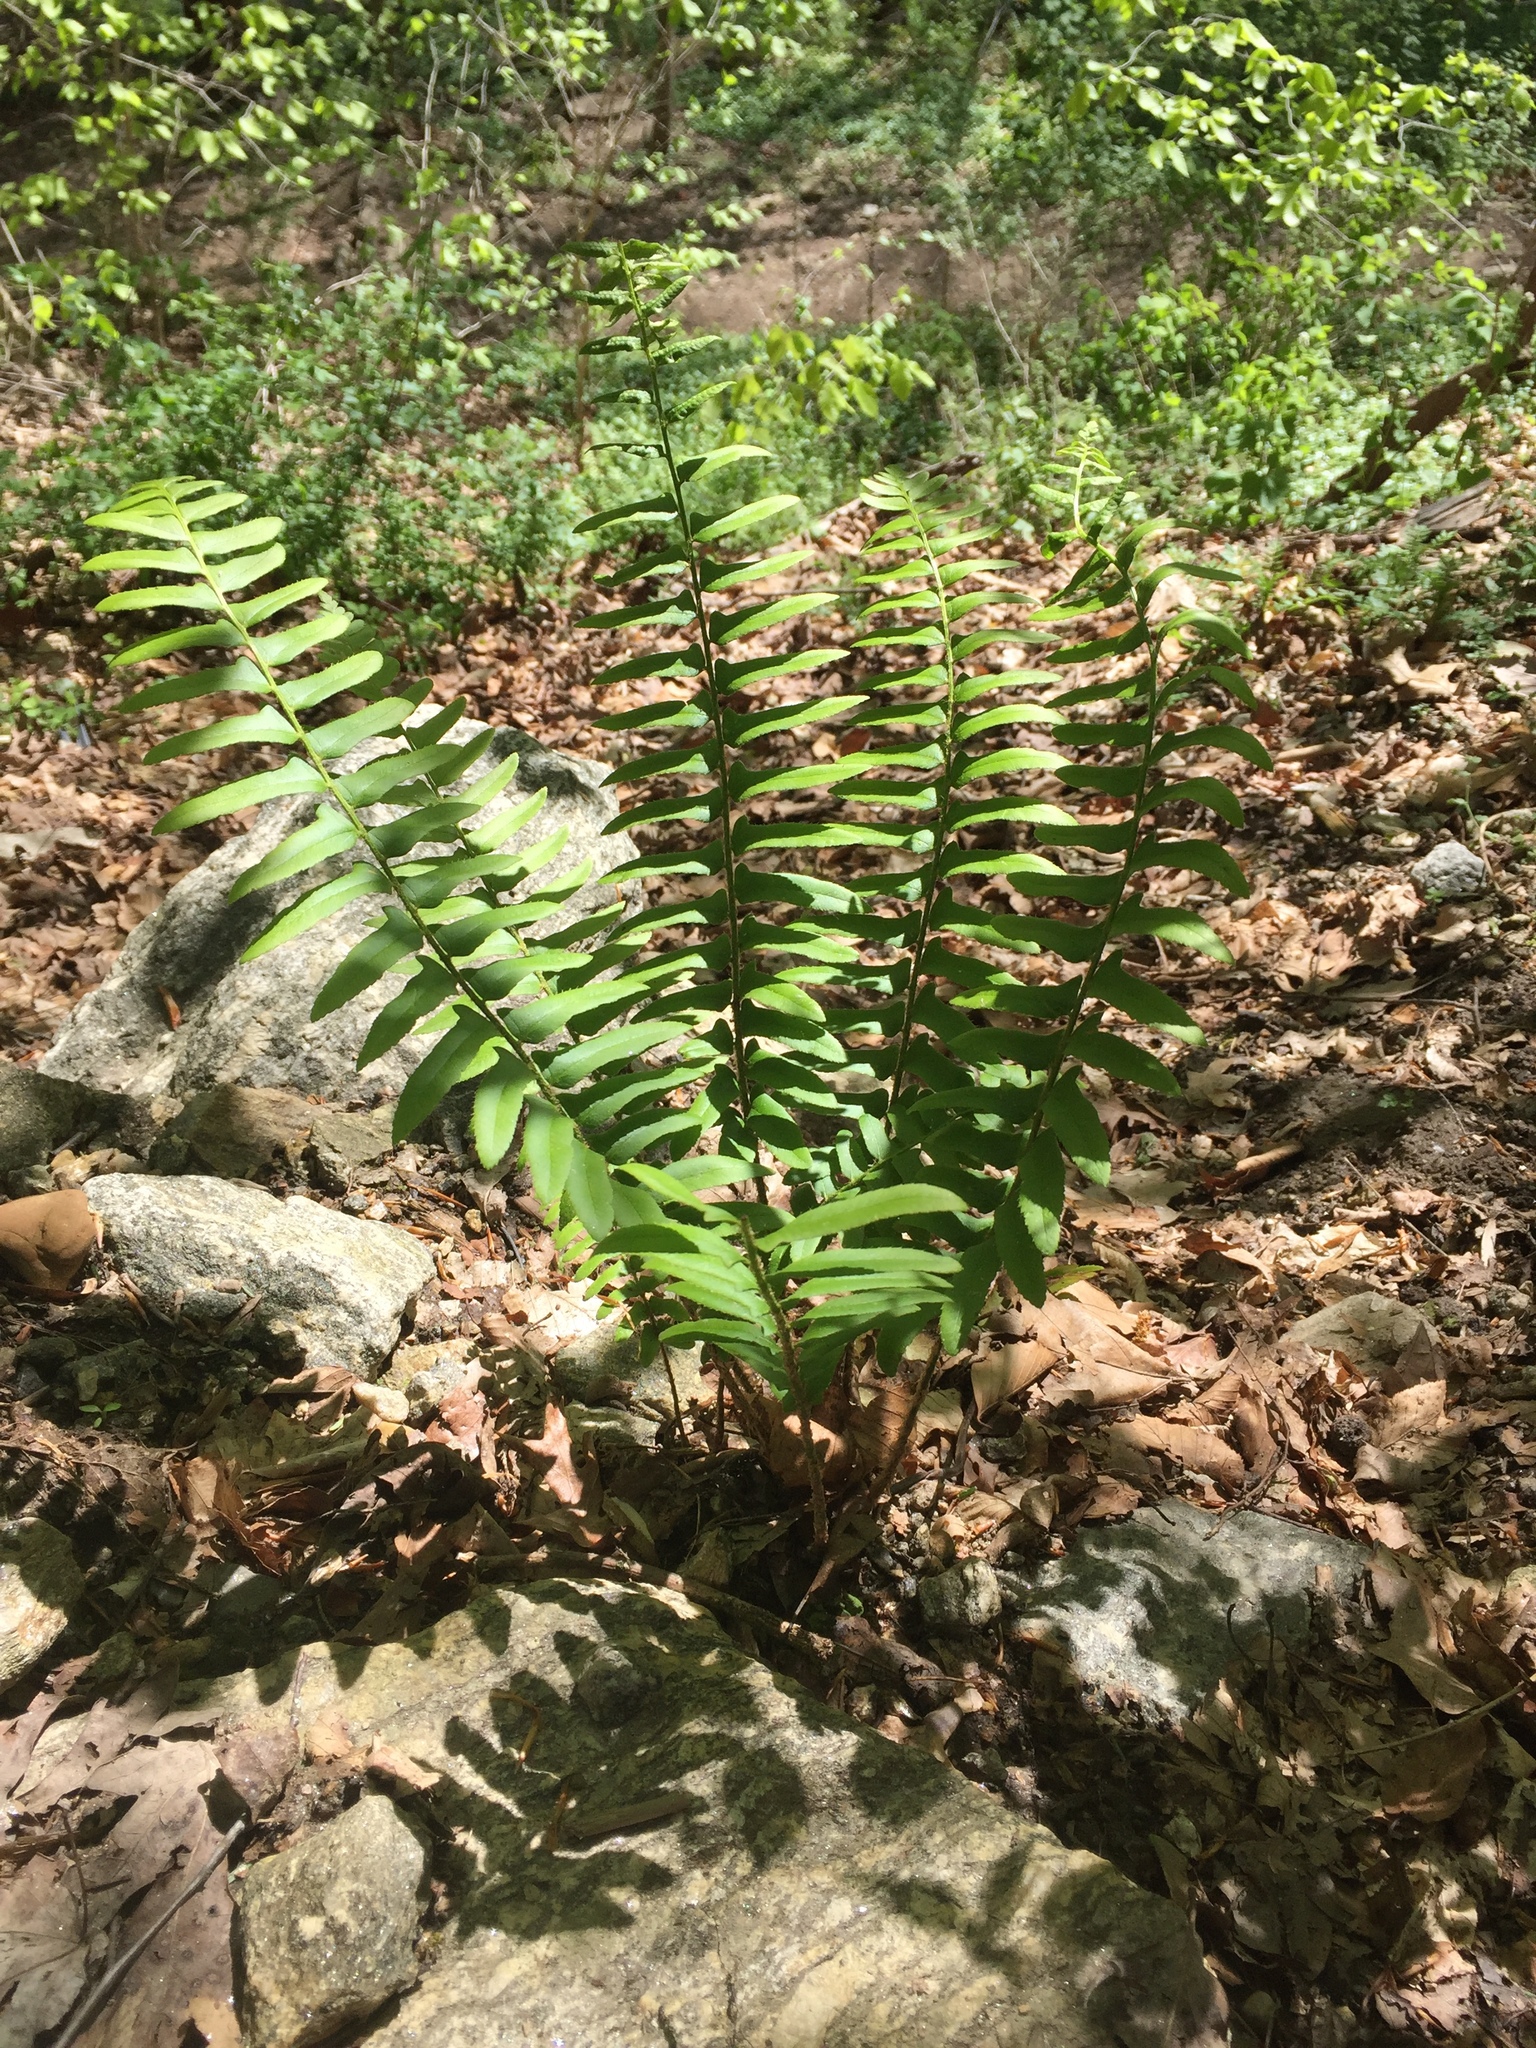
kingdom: Plantae
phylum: Tracheophyta
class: Polypodiopsida
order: Polypodiales
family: Dryopteridaceae
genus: Polystichum
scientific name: Polystichum acrostichoides
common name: Christmas fern
